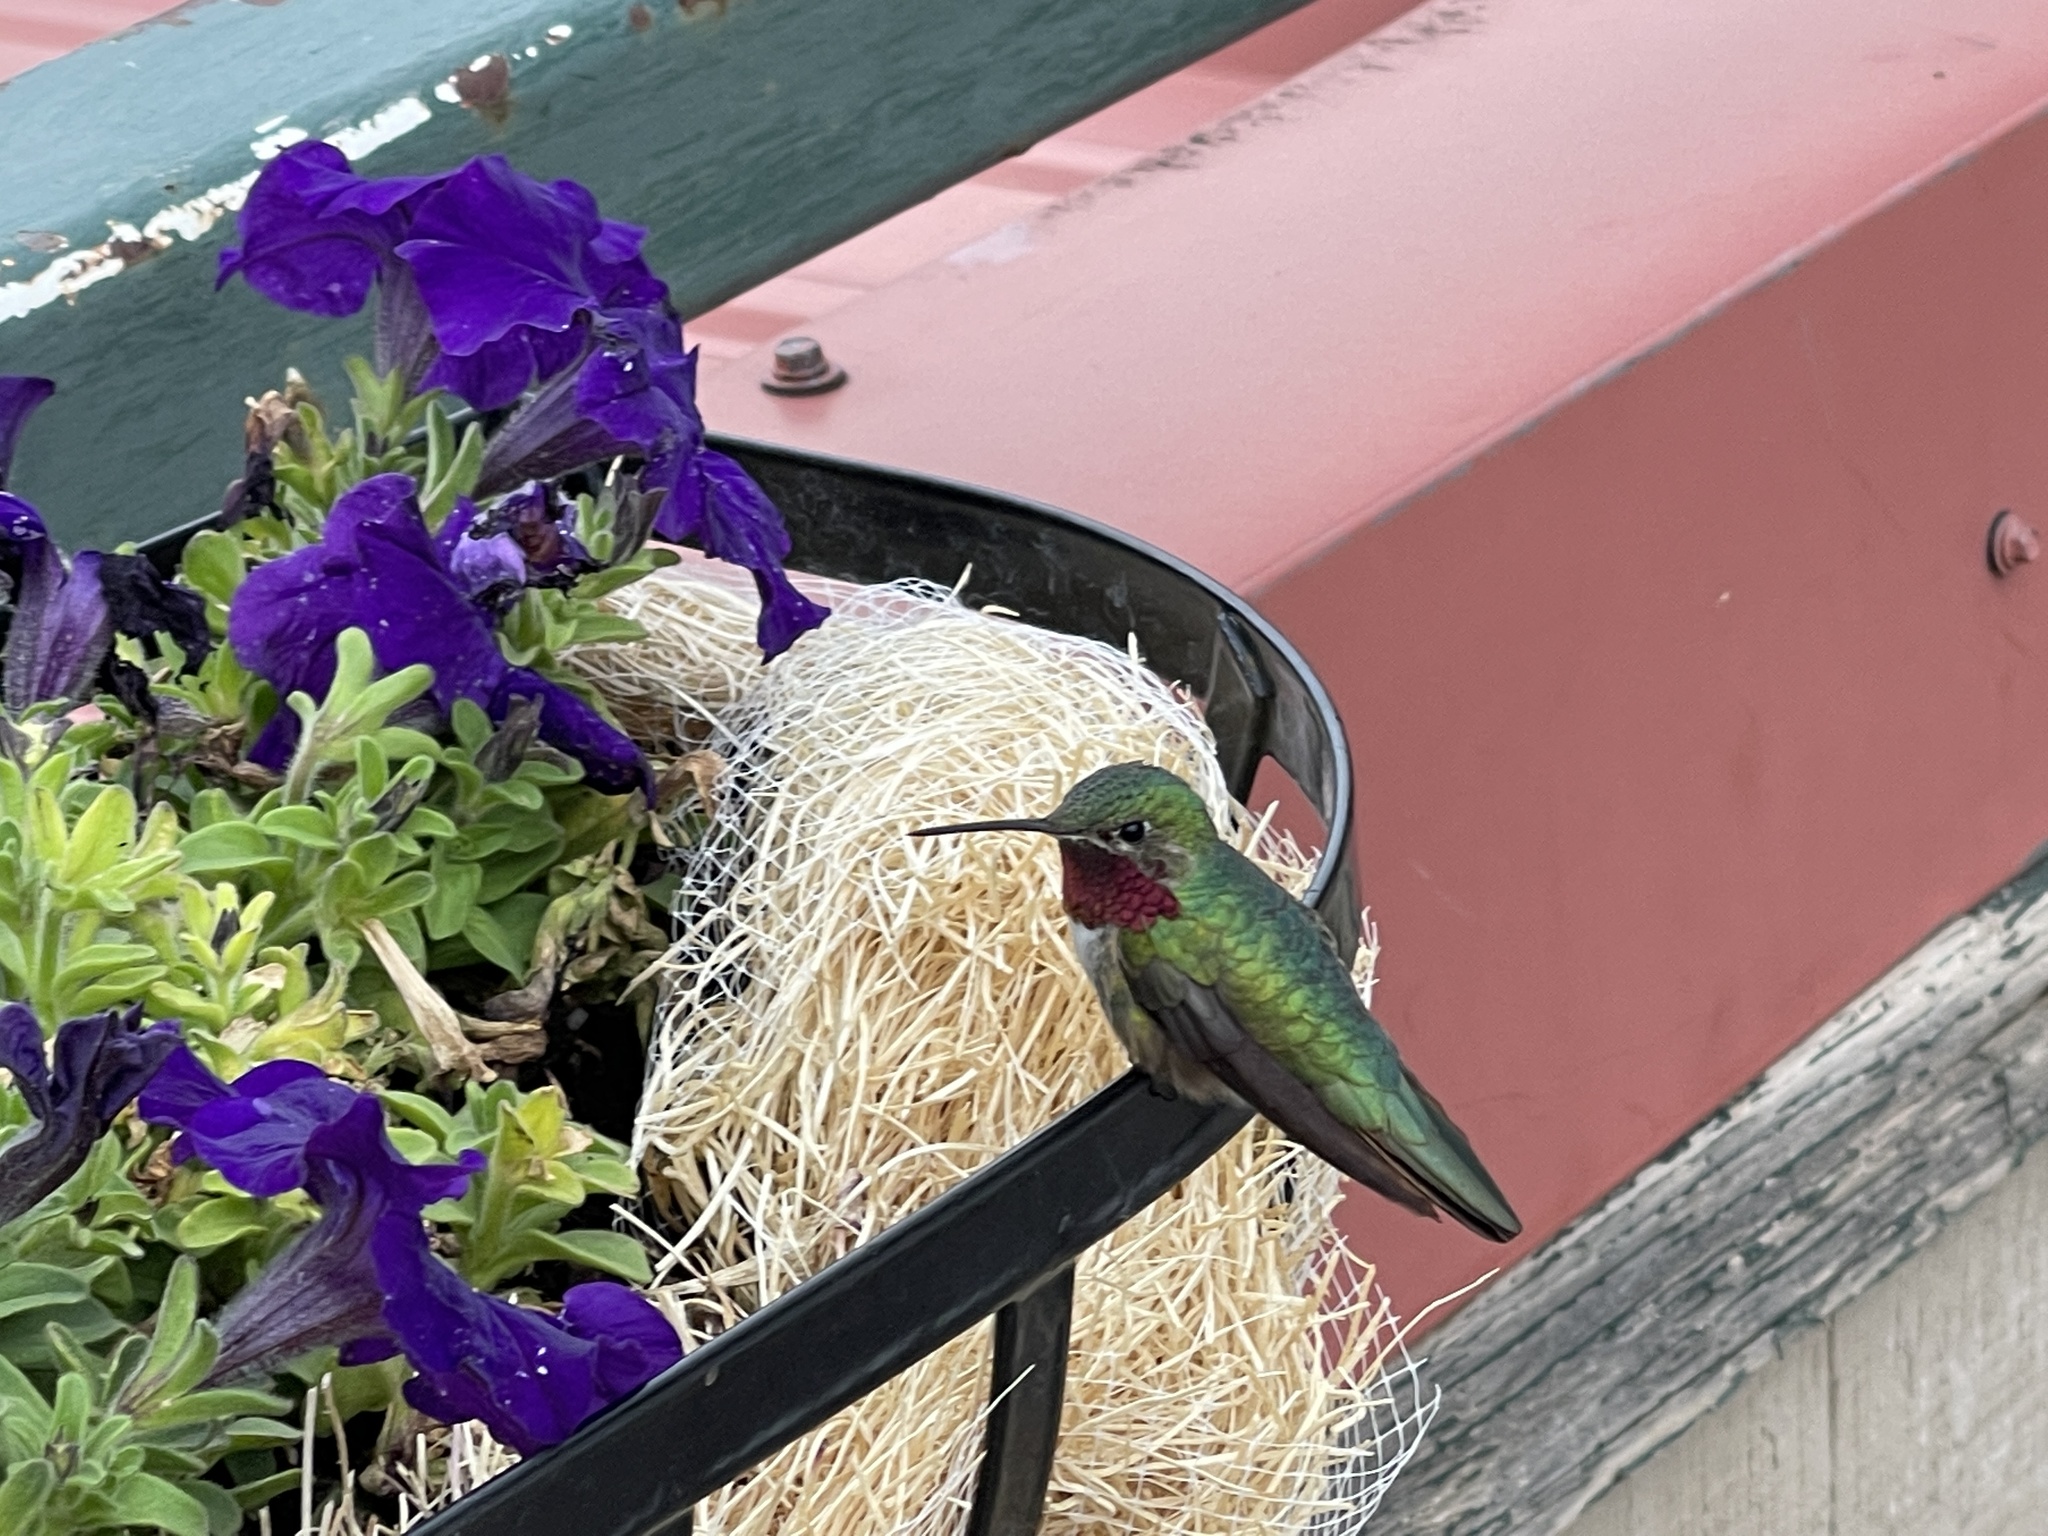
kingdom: Animalia
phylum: Chordata
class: Aves
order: Apodiformes
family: Trochilidae
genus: Selasphorus
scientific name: Selasphorus platycercus
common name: Broad-tailed hummingbird
